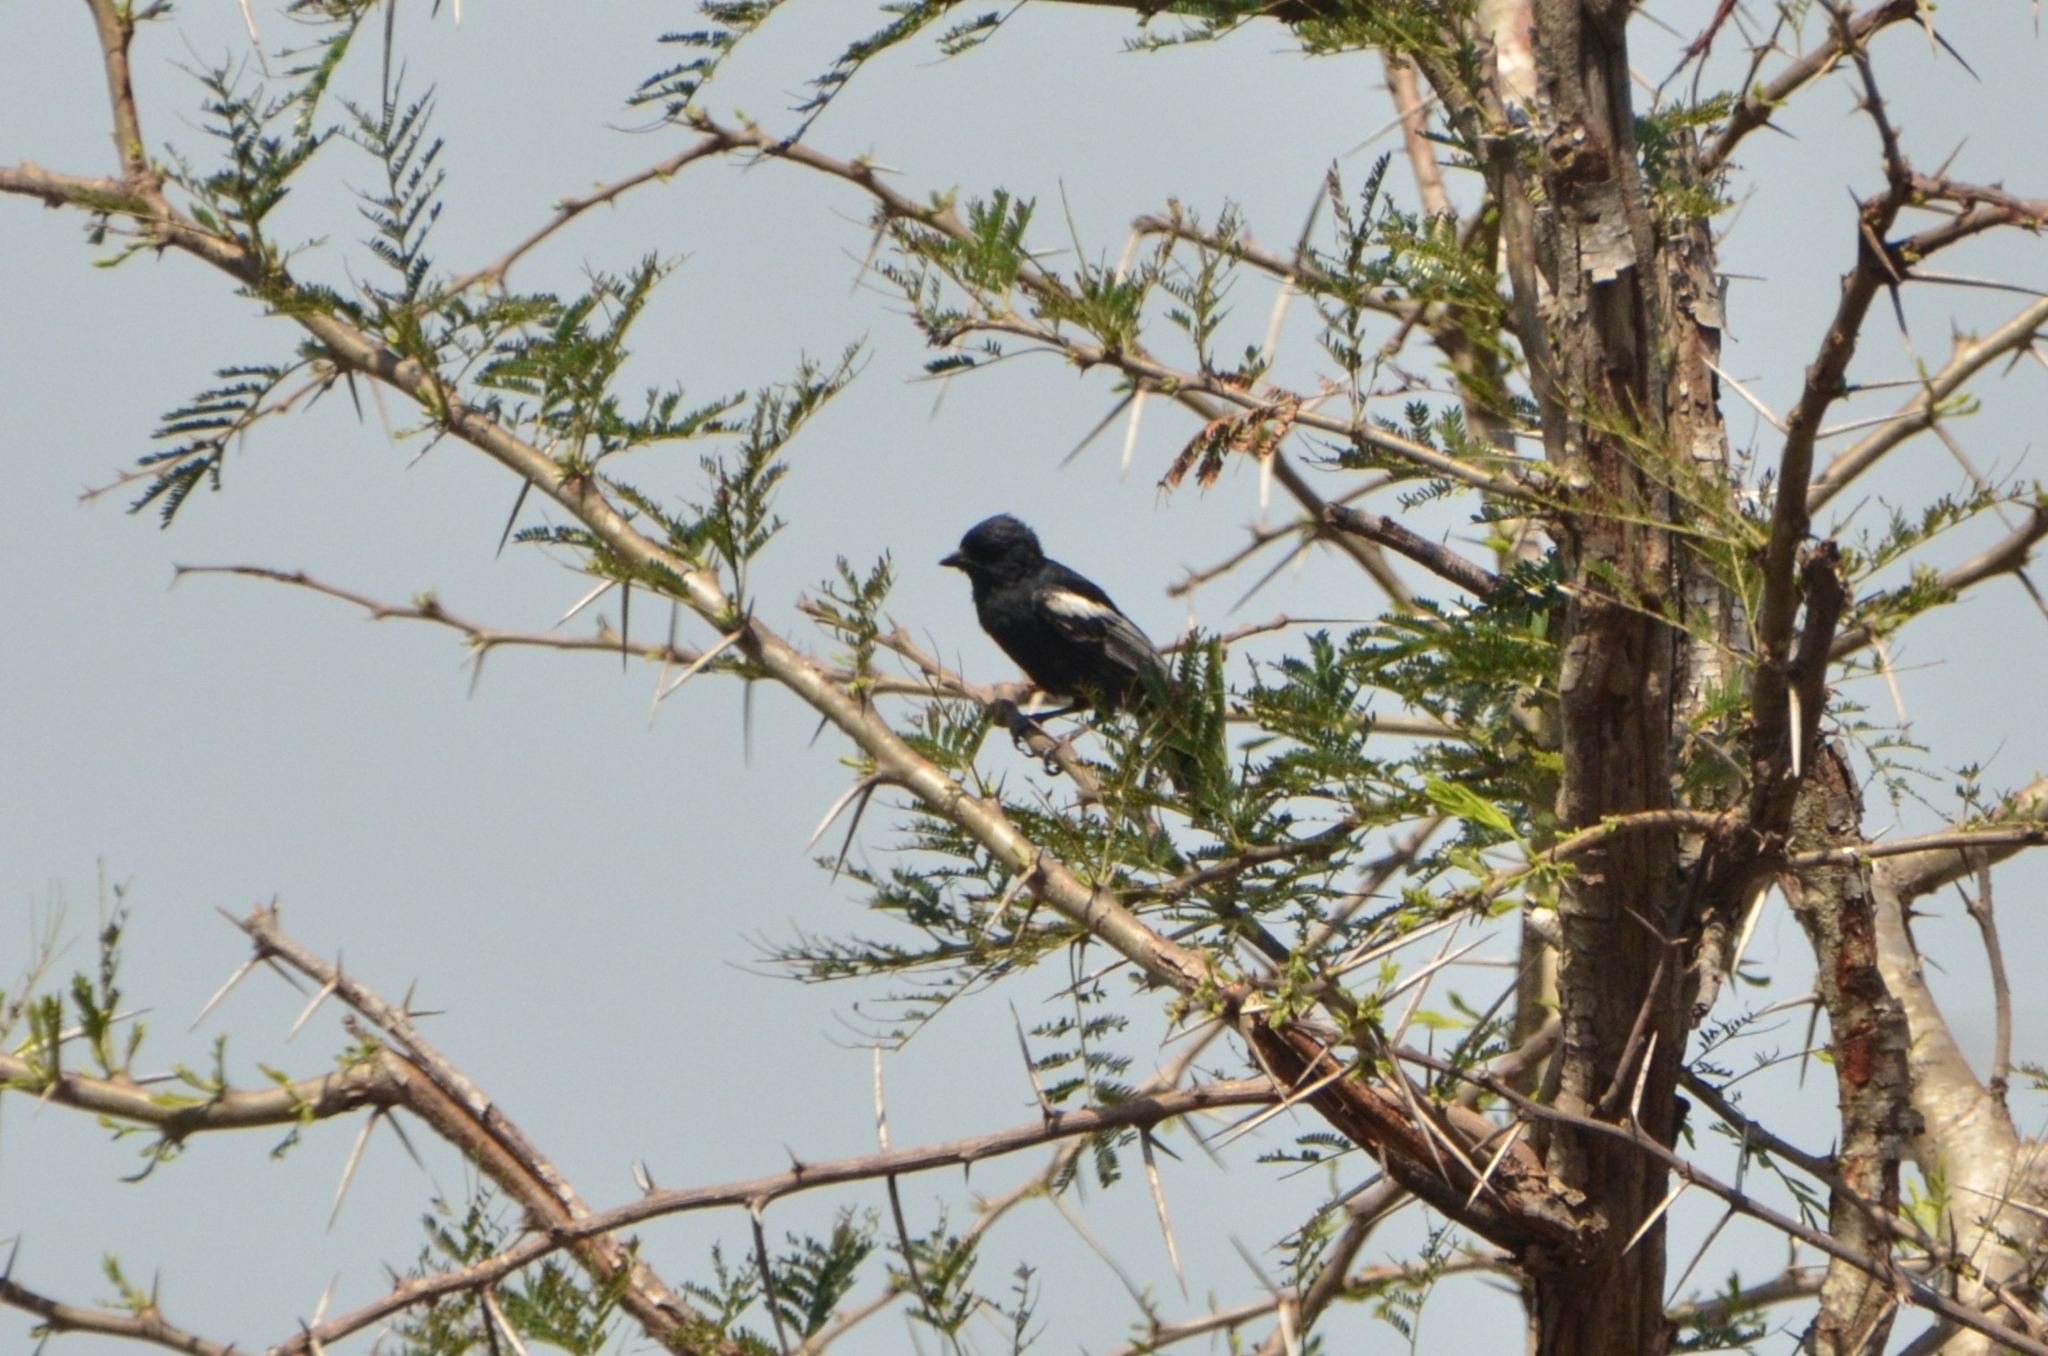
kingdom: Animalia
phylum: Chordata
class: Aves
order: Passeriformes
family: Paridae
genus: Parus
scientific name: Parus niger
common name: Southern black tit
